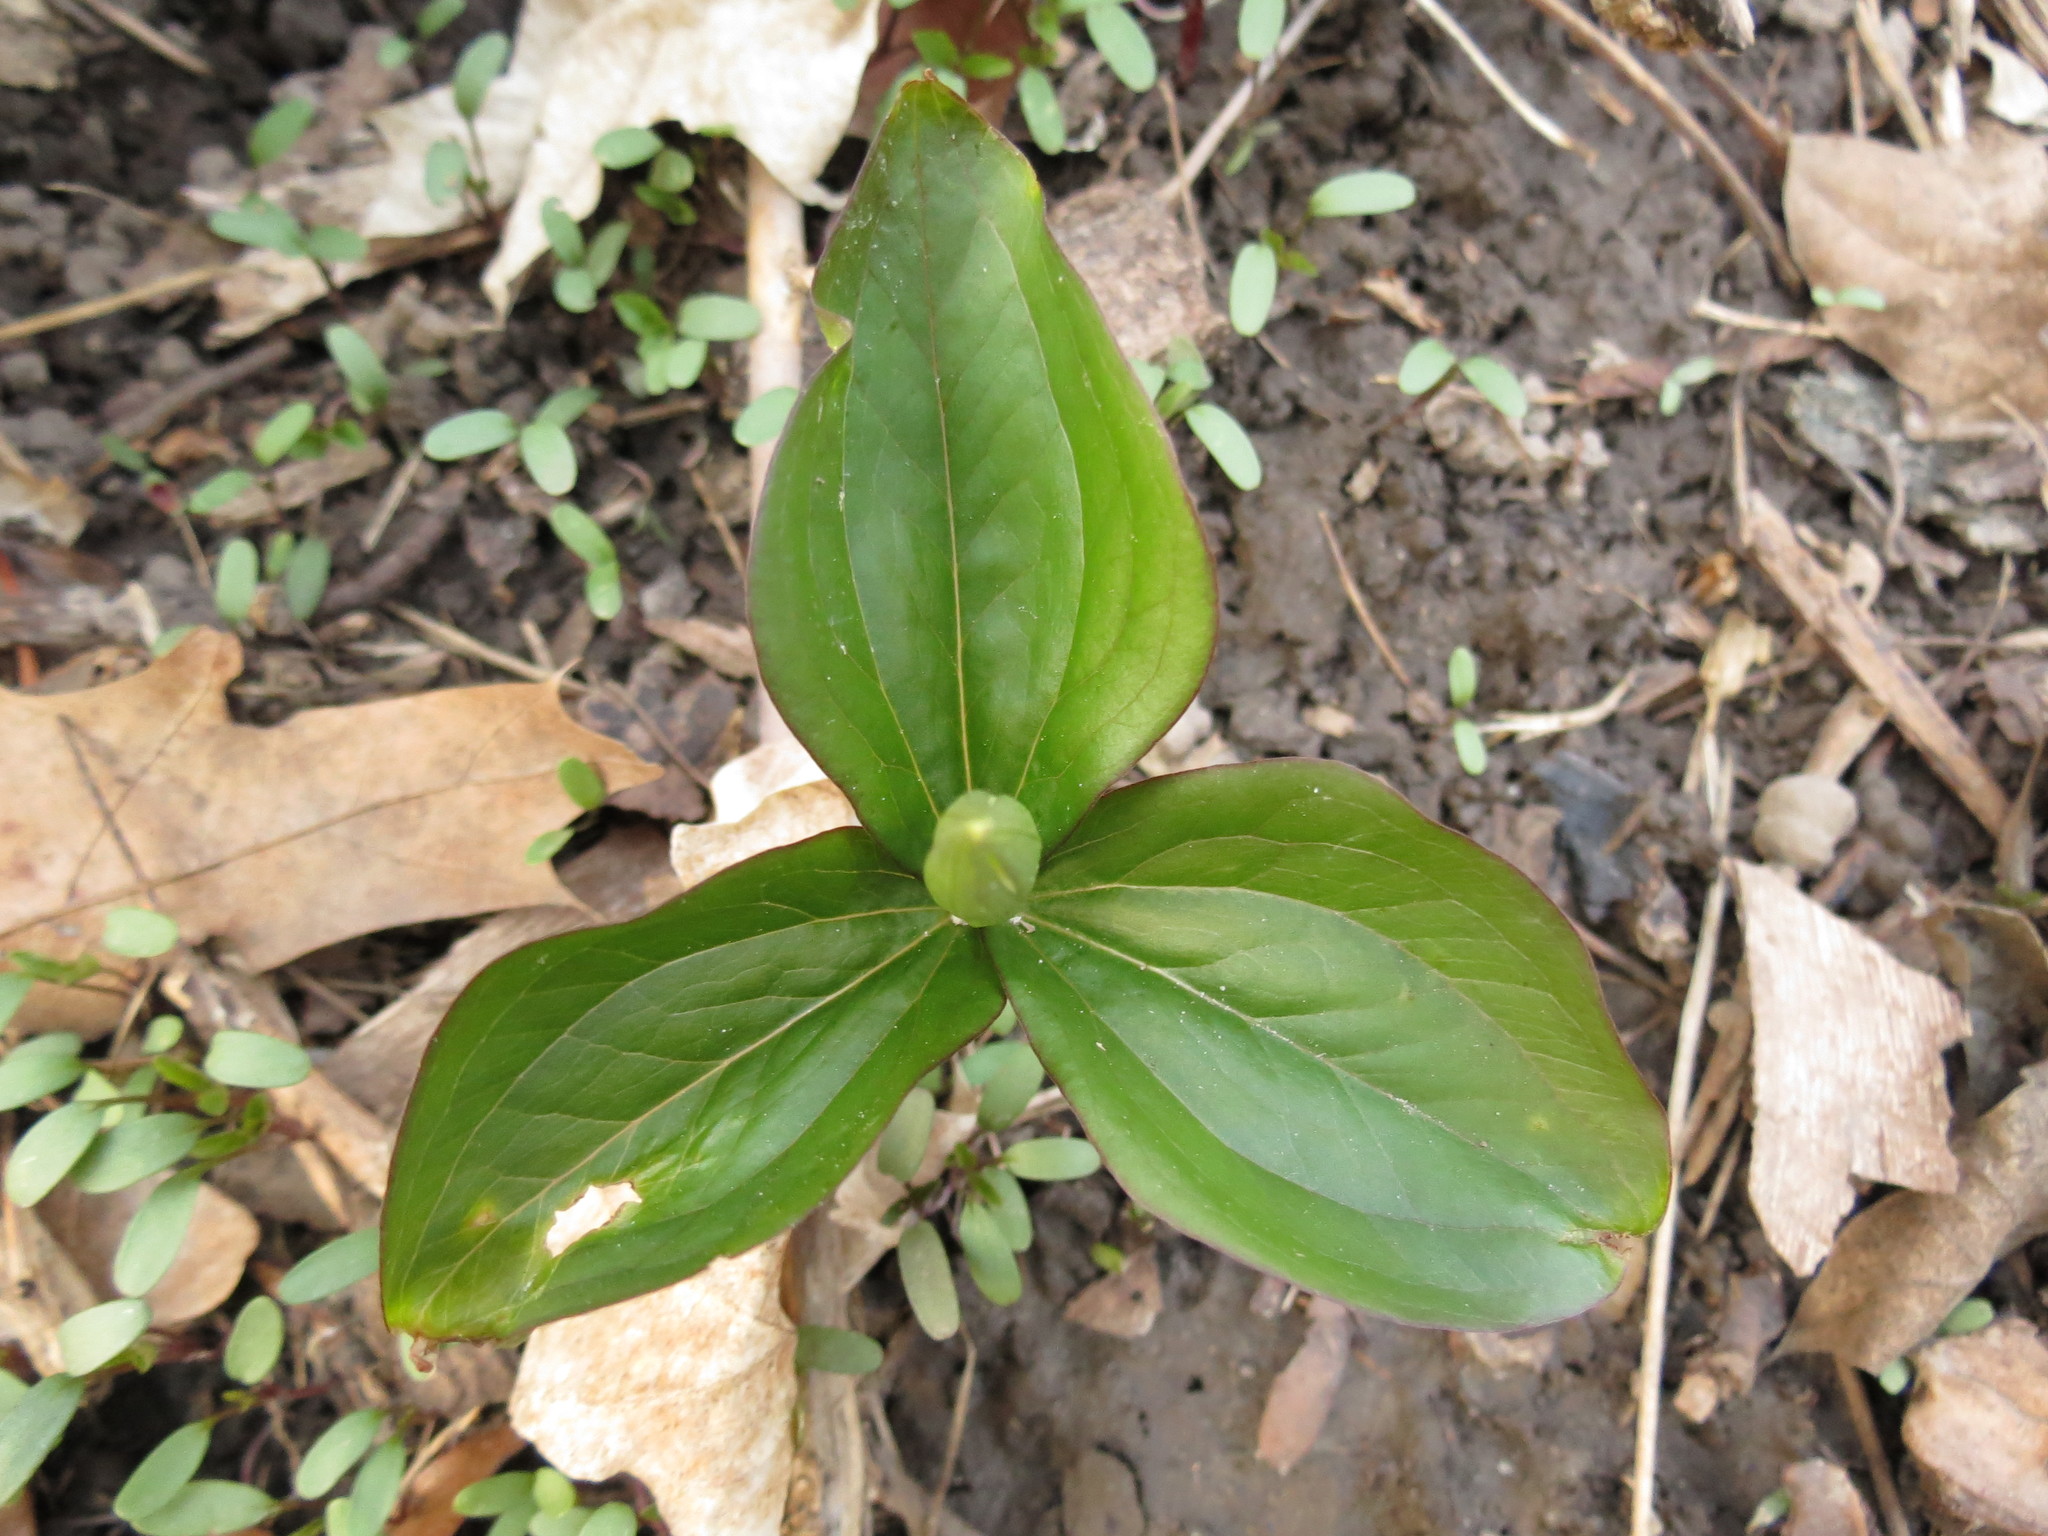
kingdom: Plantae
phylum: Tracheophyta
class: Liliopsida
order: Liliales
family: Melanthiaceae
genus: Trillium
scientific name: Trillium grandiflorum
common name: Great white trillium
